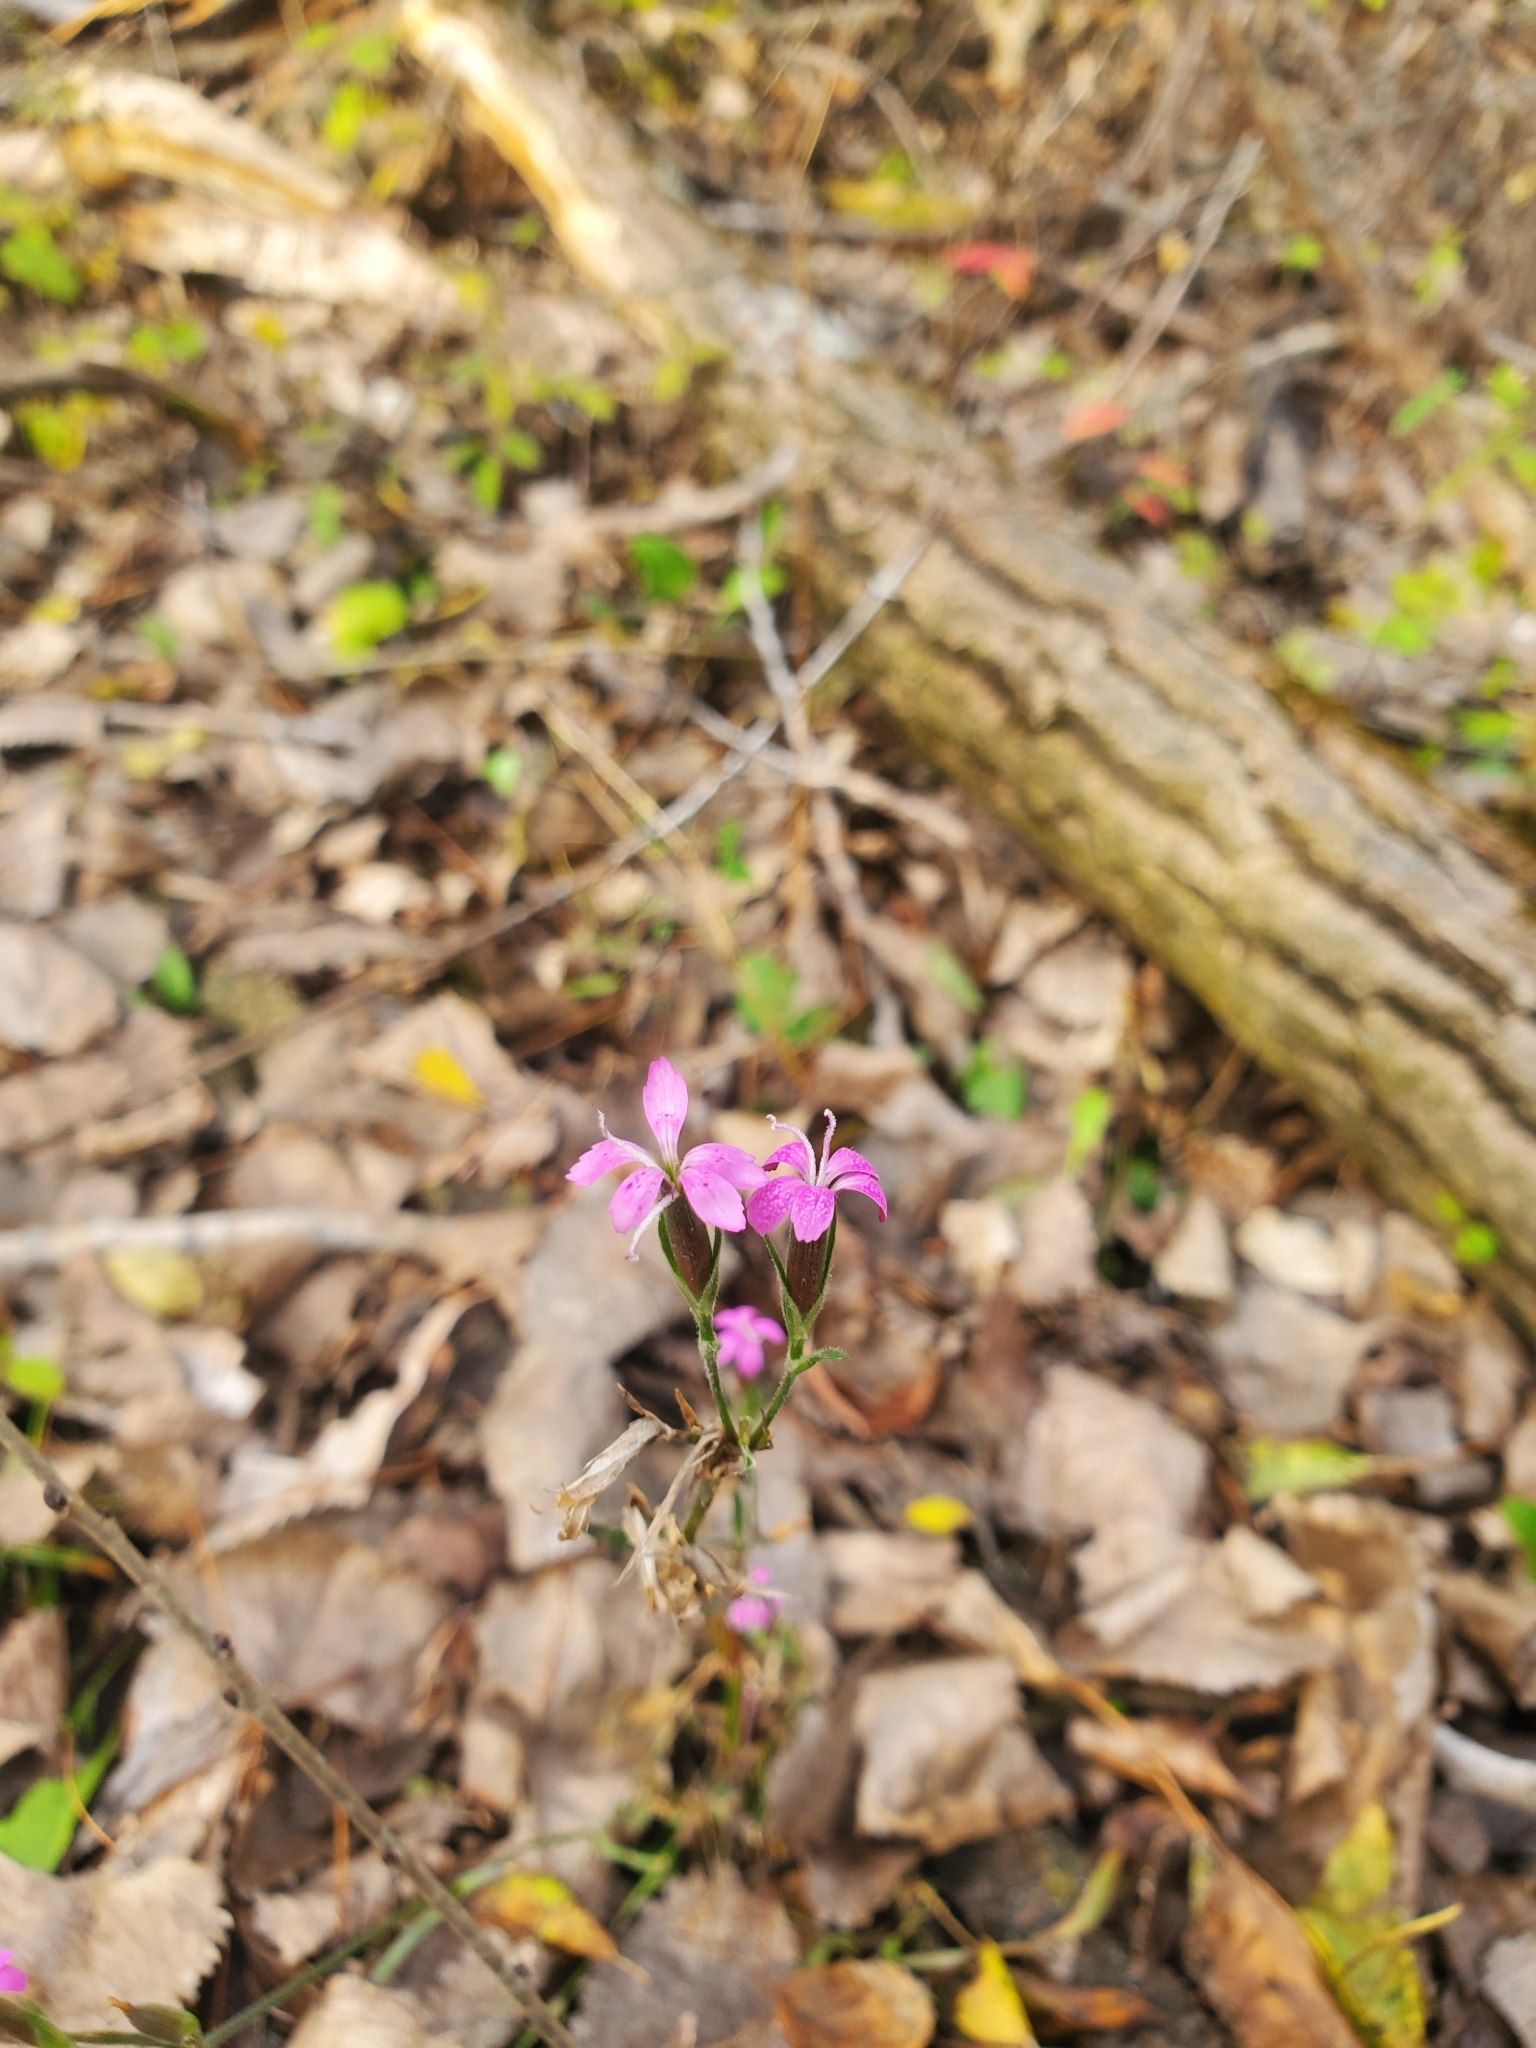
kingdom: Plantae
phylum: Tracheophyta
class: Magnoliopsida
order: Caryophyllales
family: Caryophyllaceae
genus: Dianthus
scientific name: Dianthus armeria
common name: Deptford pink
